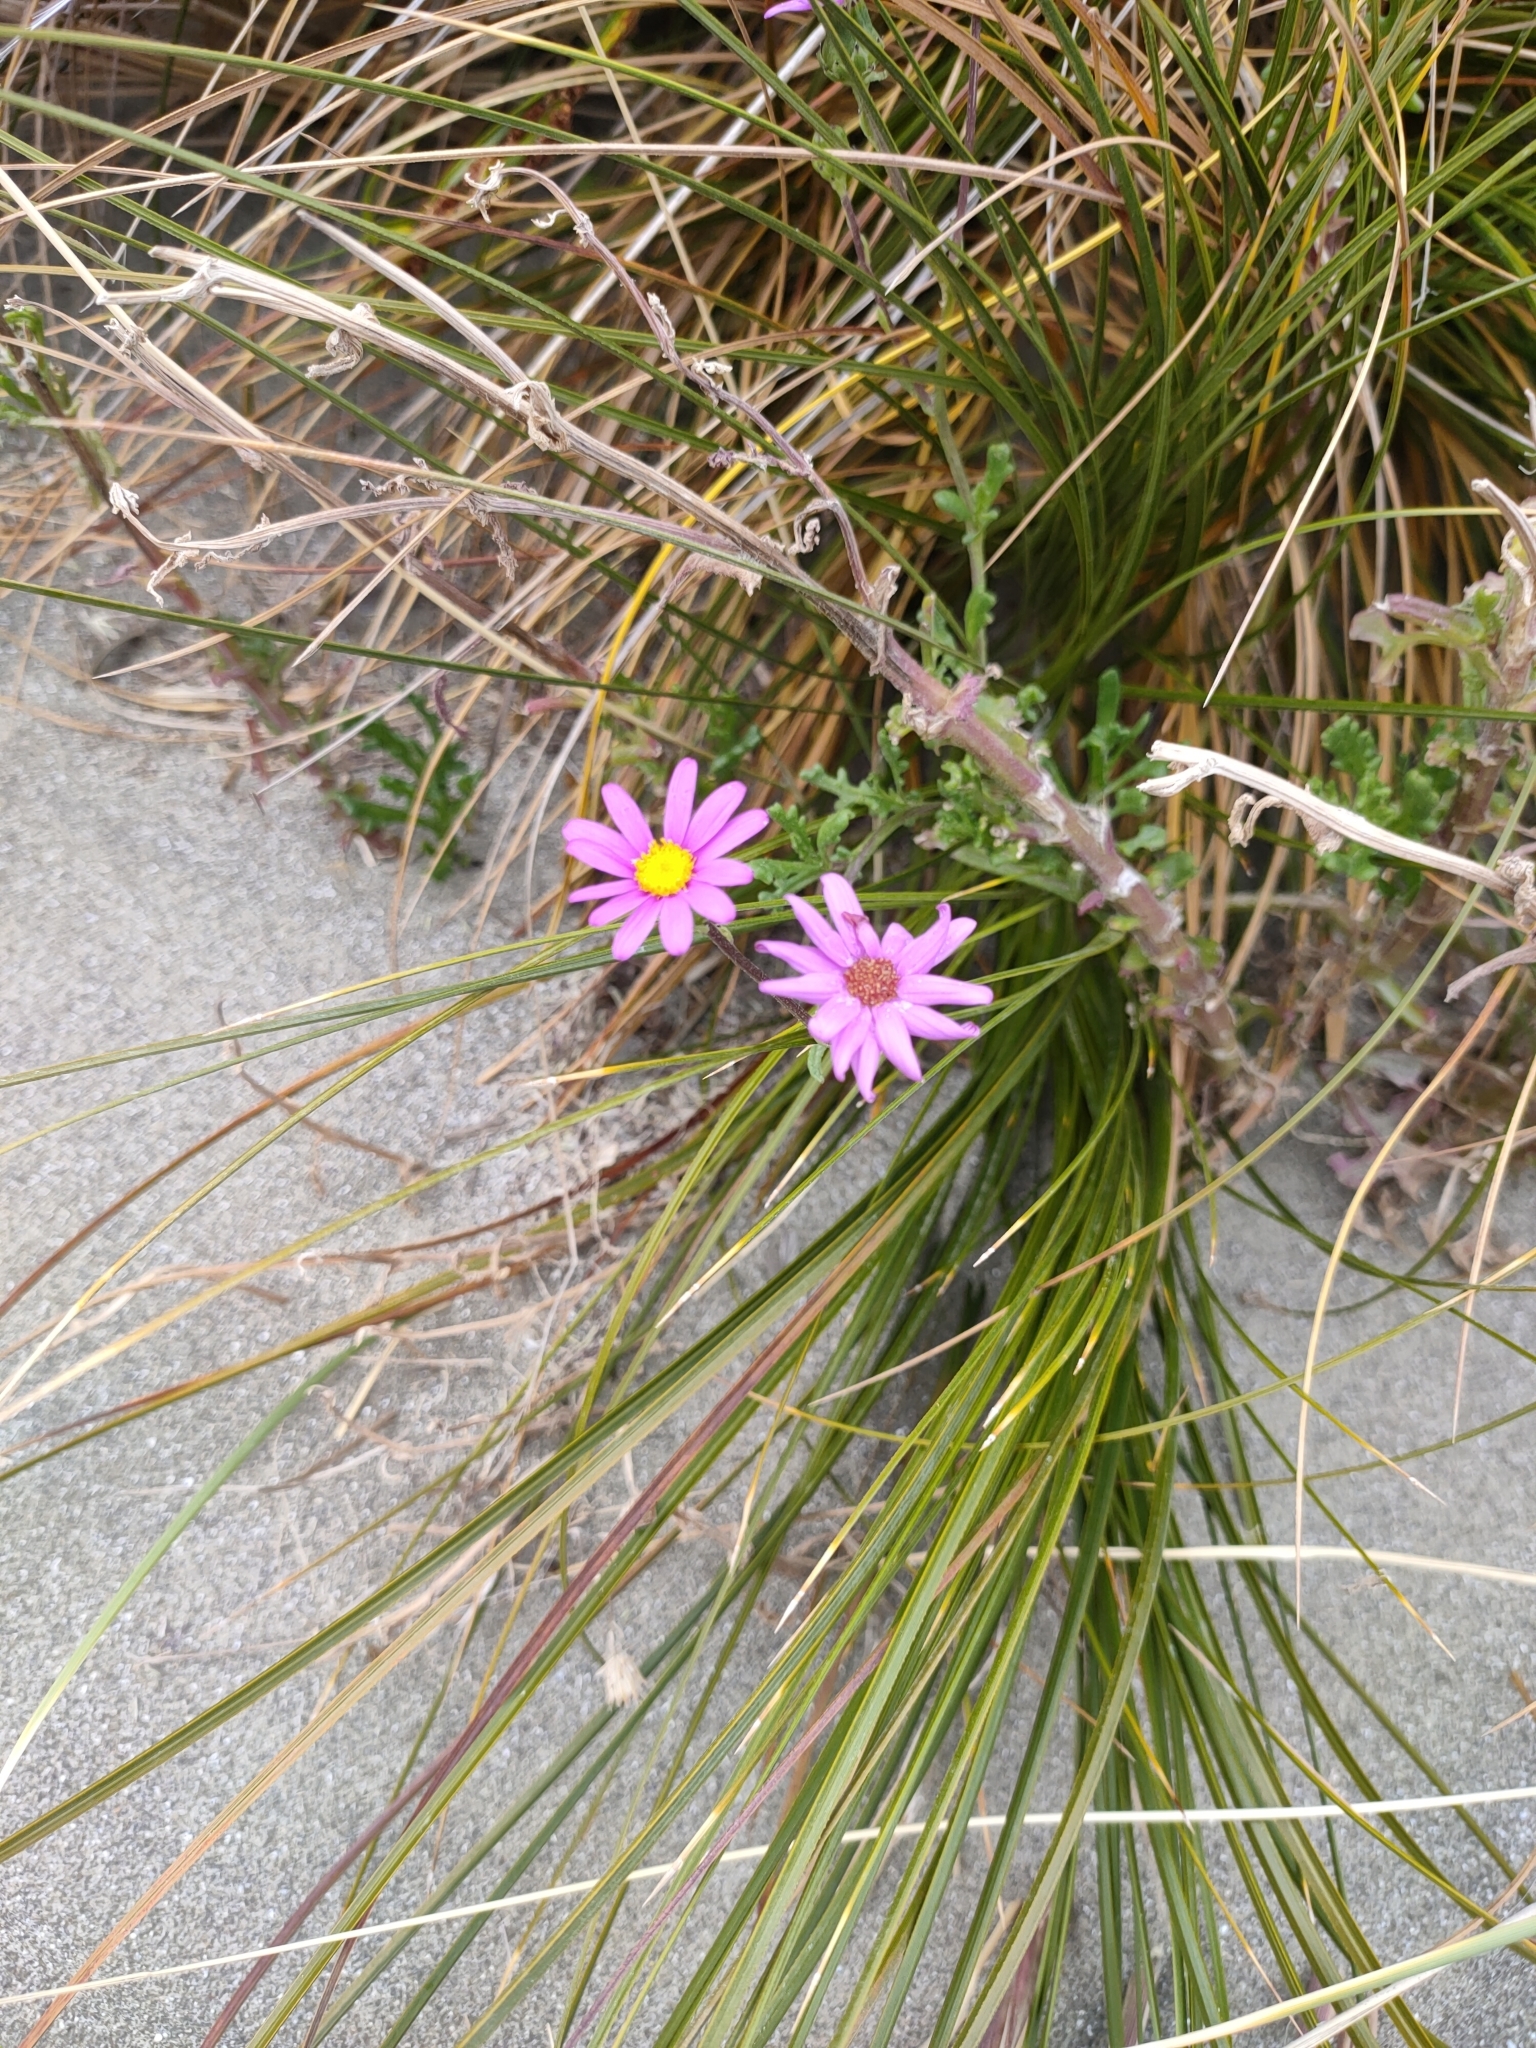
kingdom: Plantae
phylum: Tracheophyta
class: Magnoliopsida
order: Asterales
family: Asteraceae
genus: Senecio
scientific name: Senecio elegans
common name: Purple groundsel
